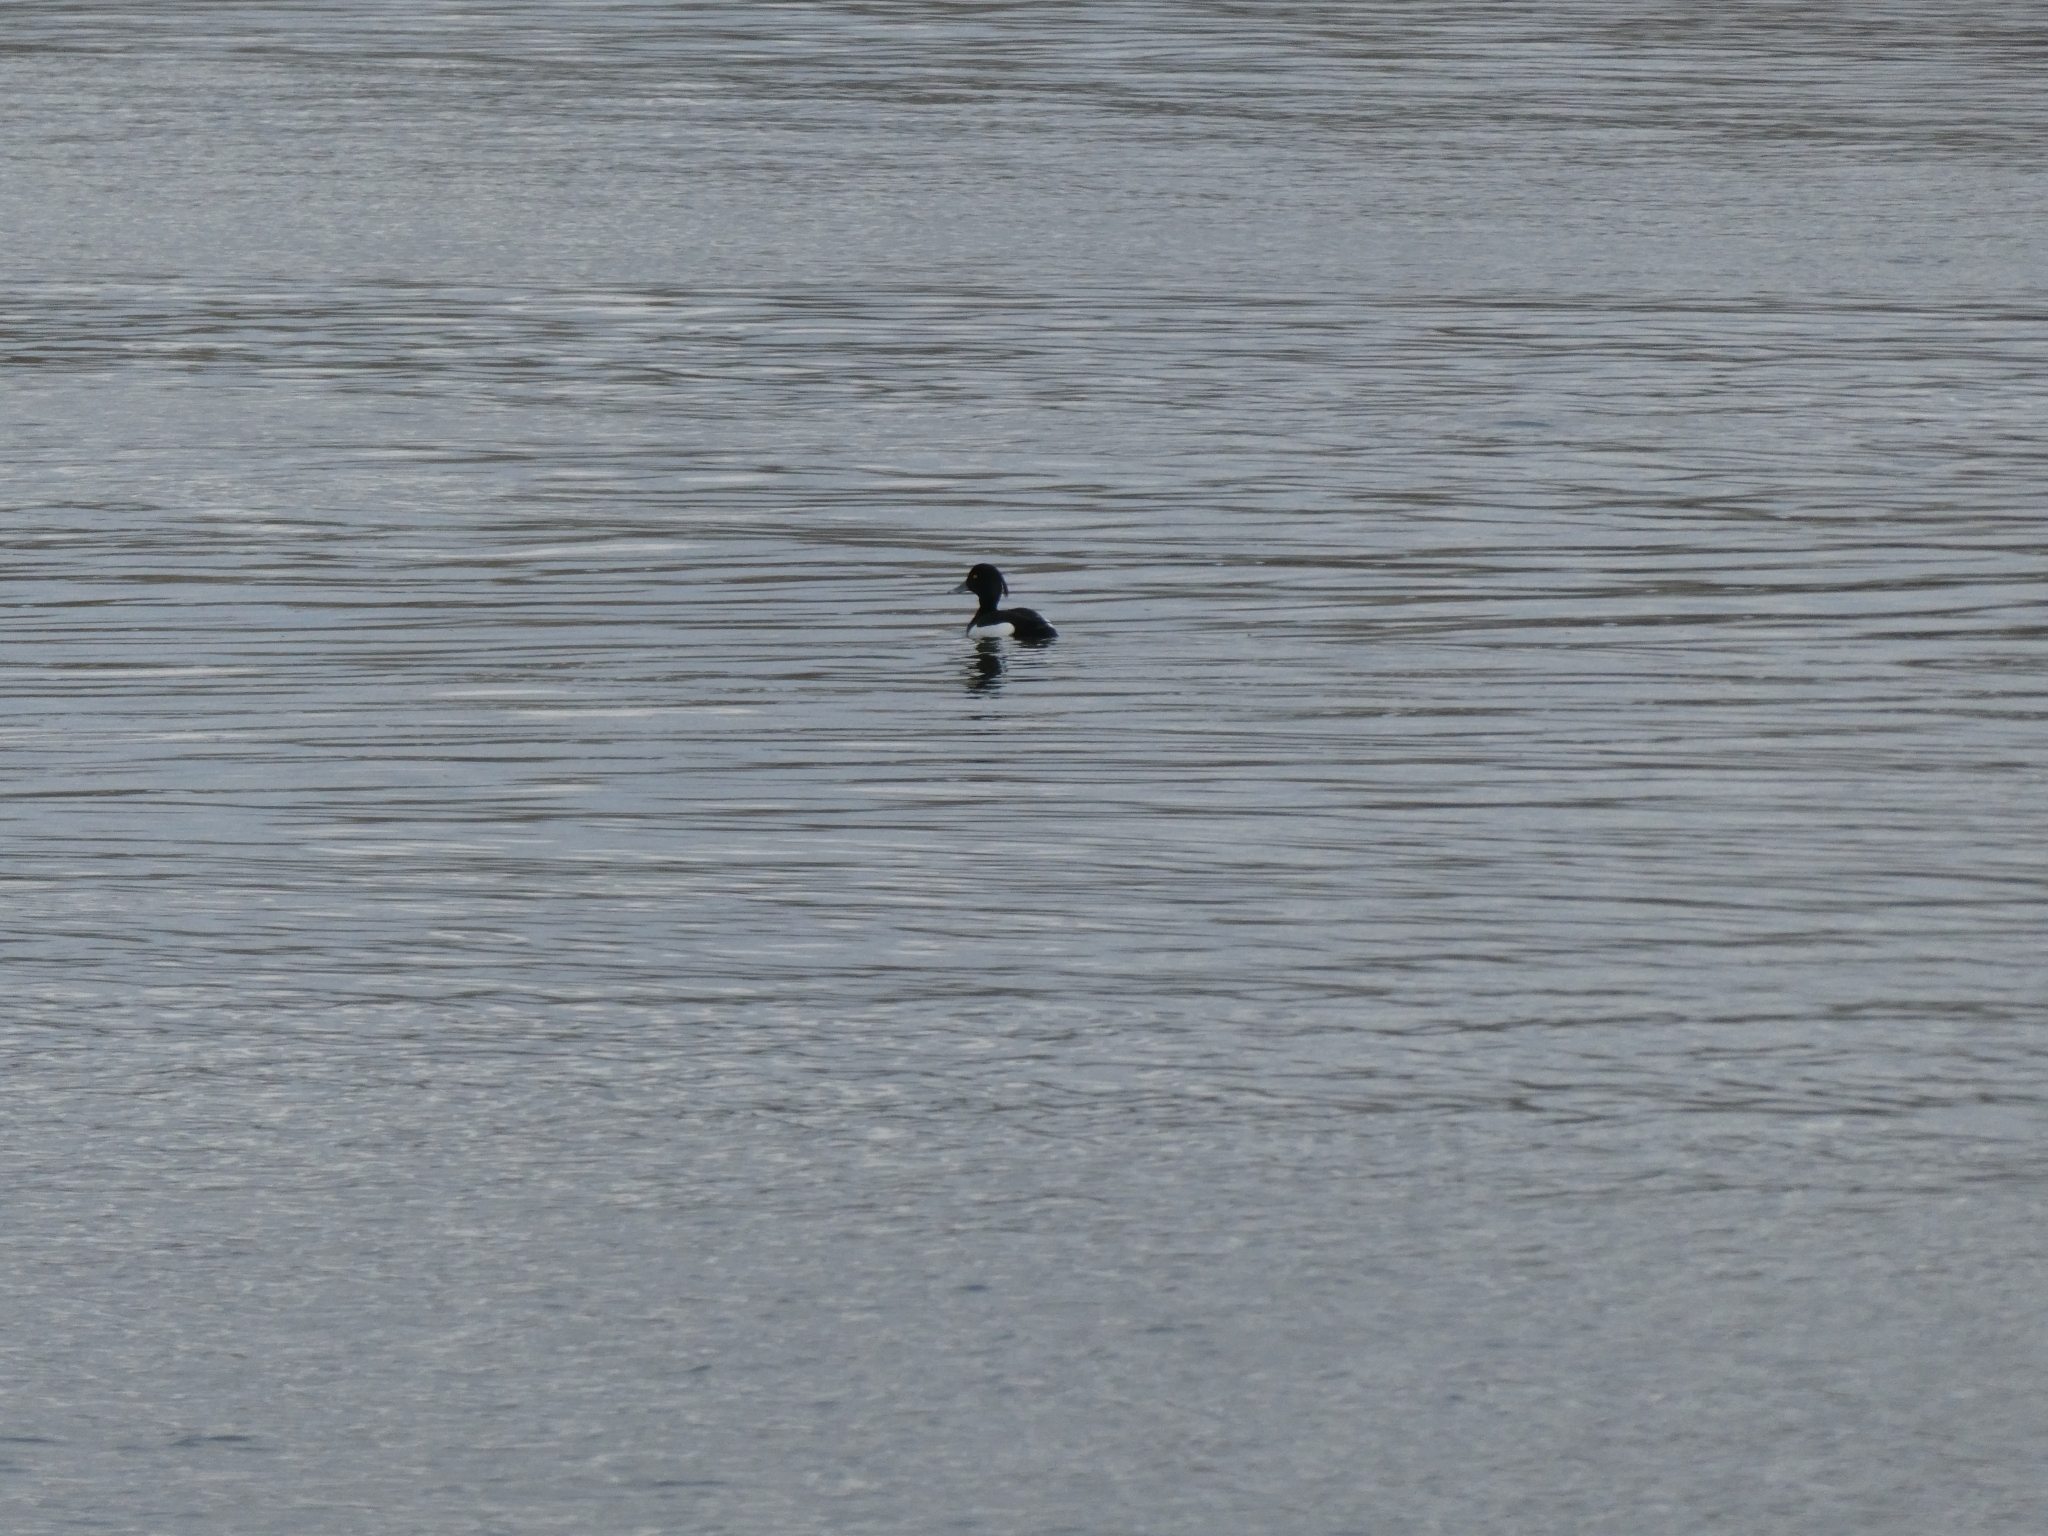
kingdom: Animalia
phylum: Chordata
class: Aves
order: Anseriformes
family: Anatidae
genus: Aythya
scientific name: Aythya fuligula
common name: Tufted duck
